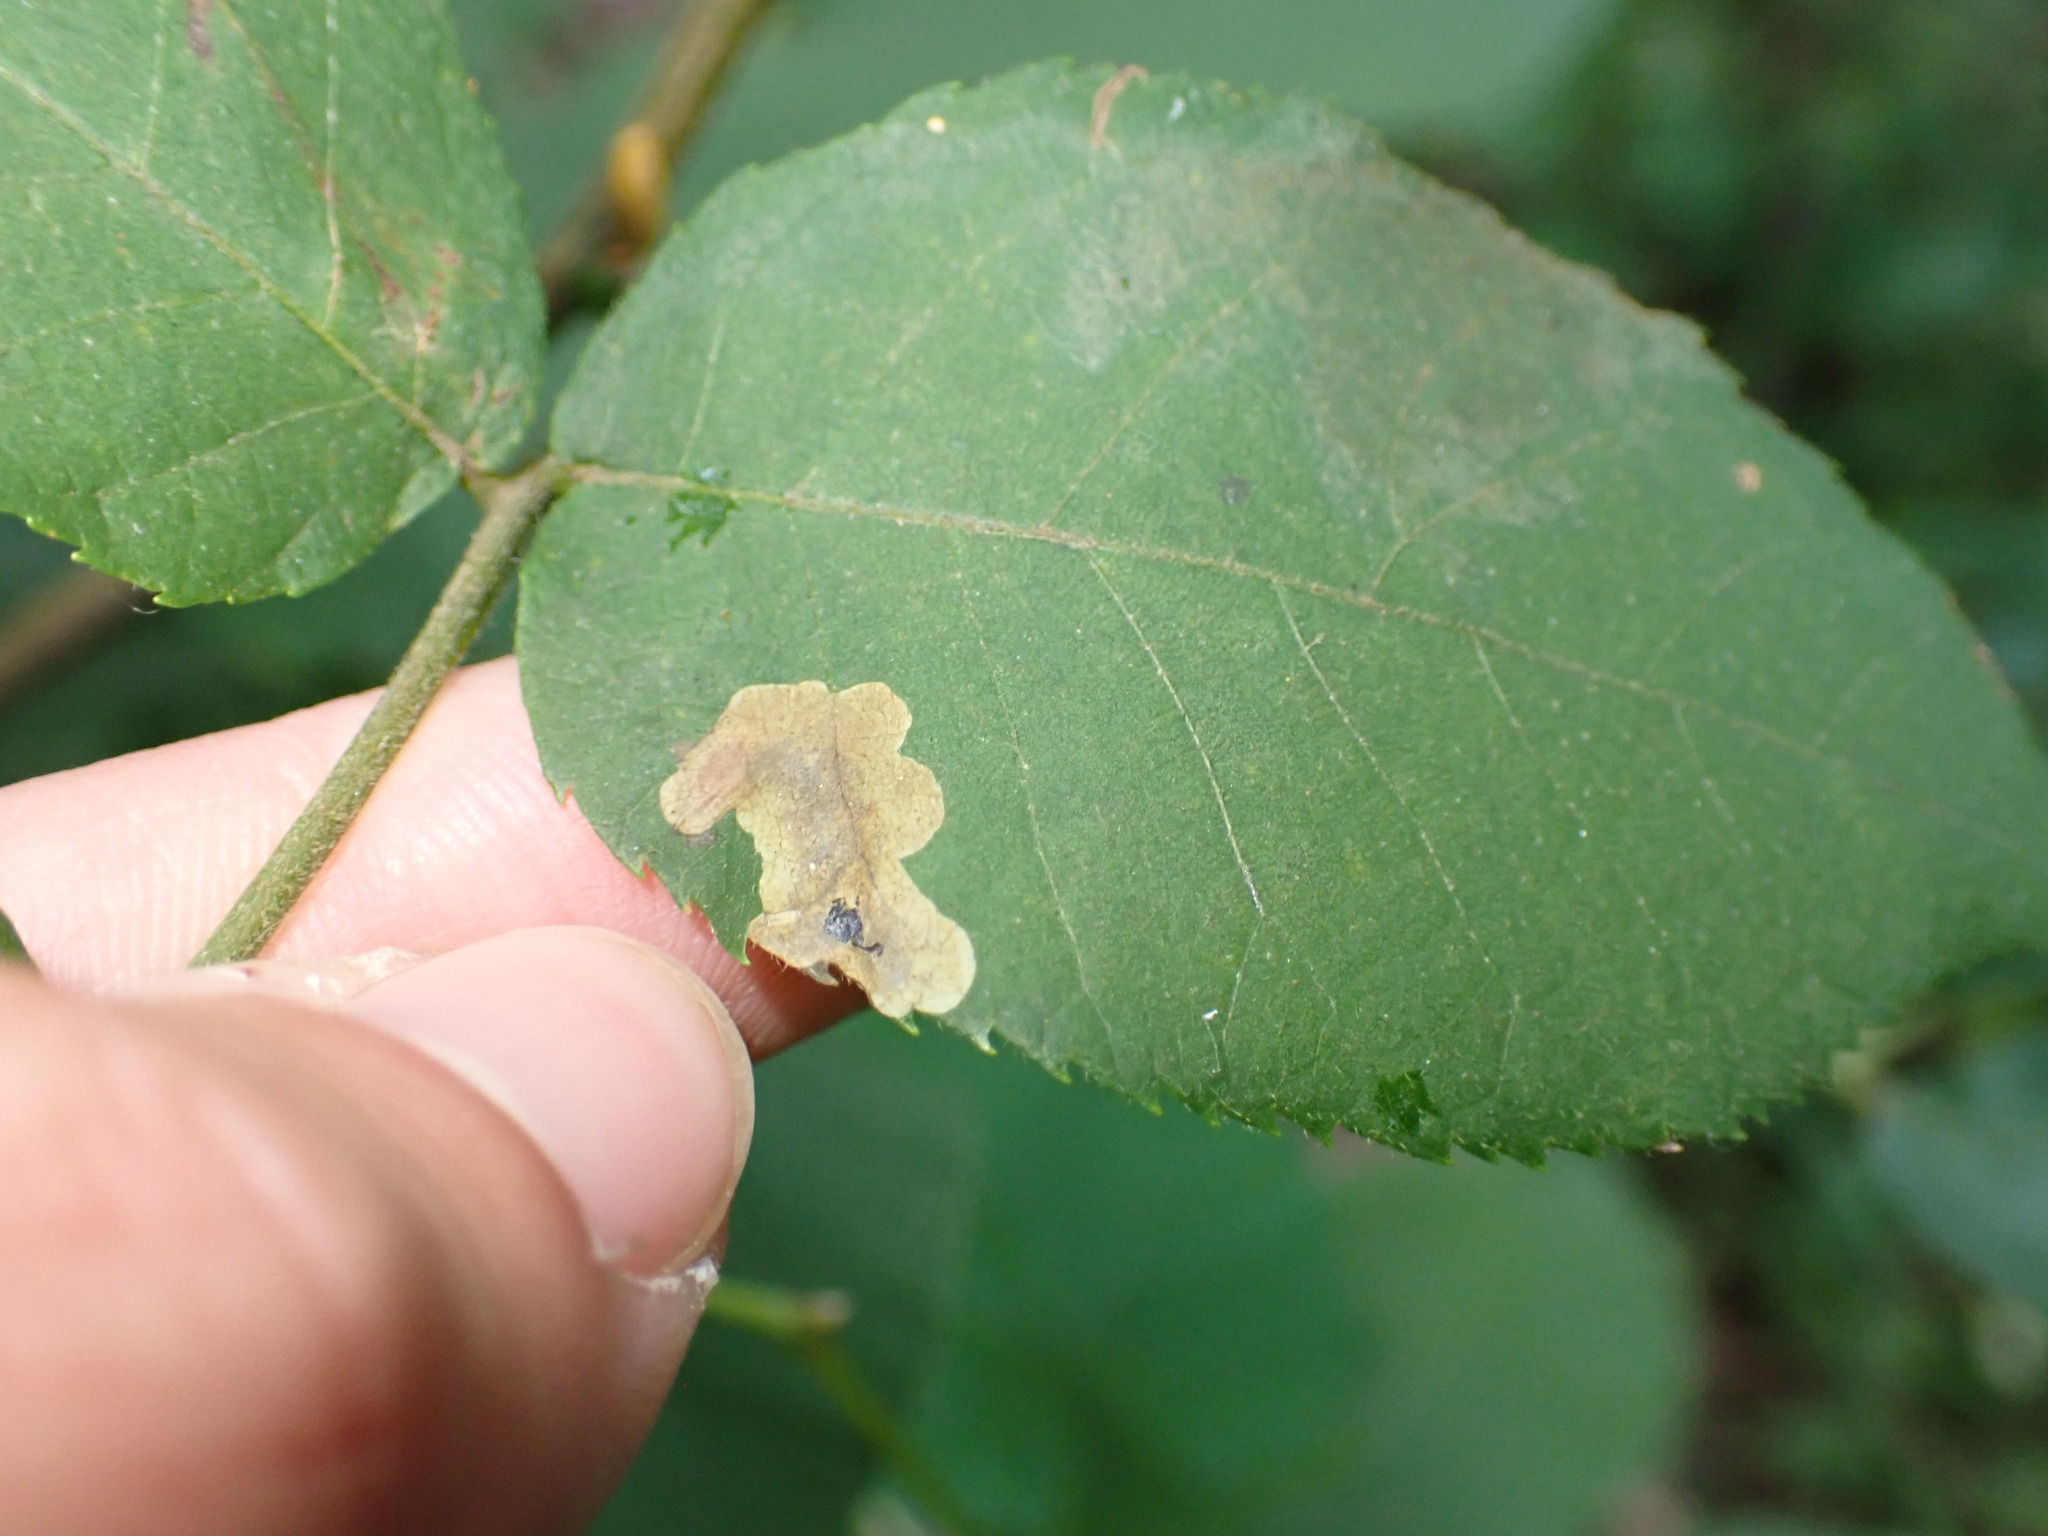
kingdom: Animalia
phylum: Arthropoda
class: Insecta
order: Lepidoptera
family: Gracillariidae
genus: Cameraria
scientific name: Cameraria caryaefoliella
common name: Pecan leafminer moth
